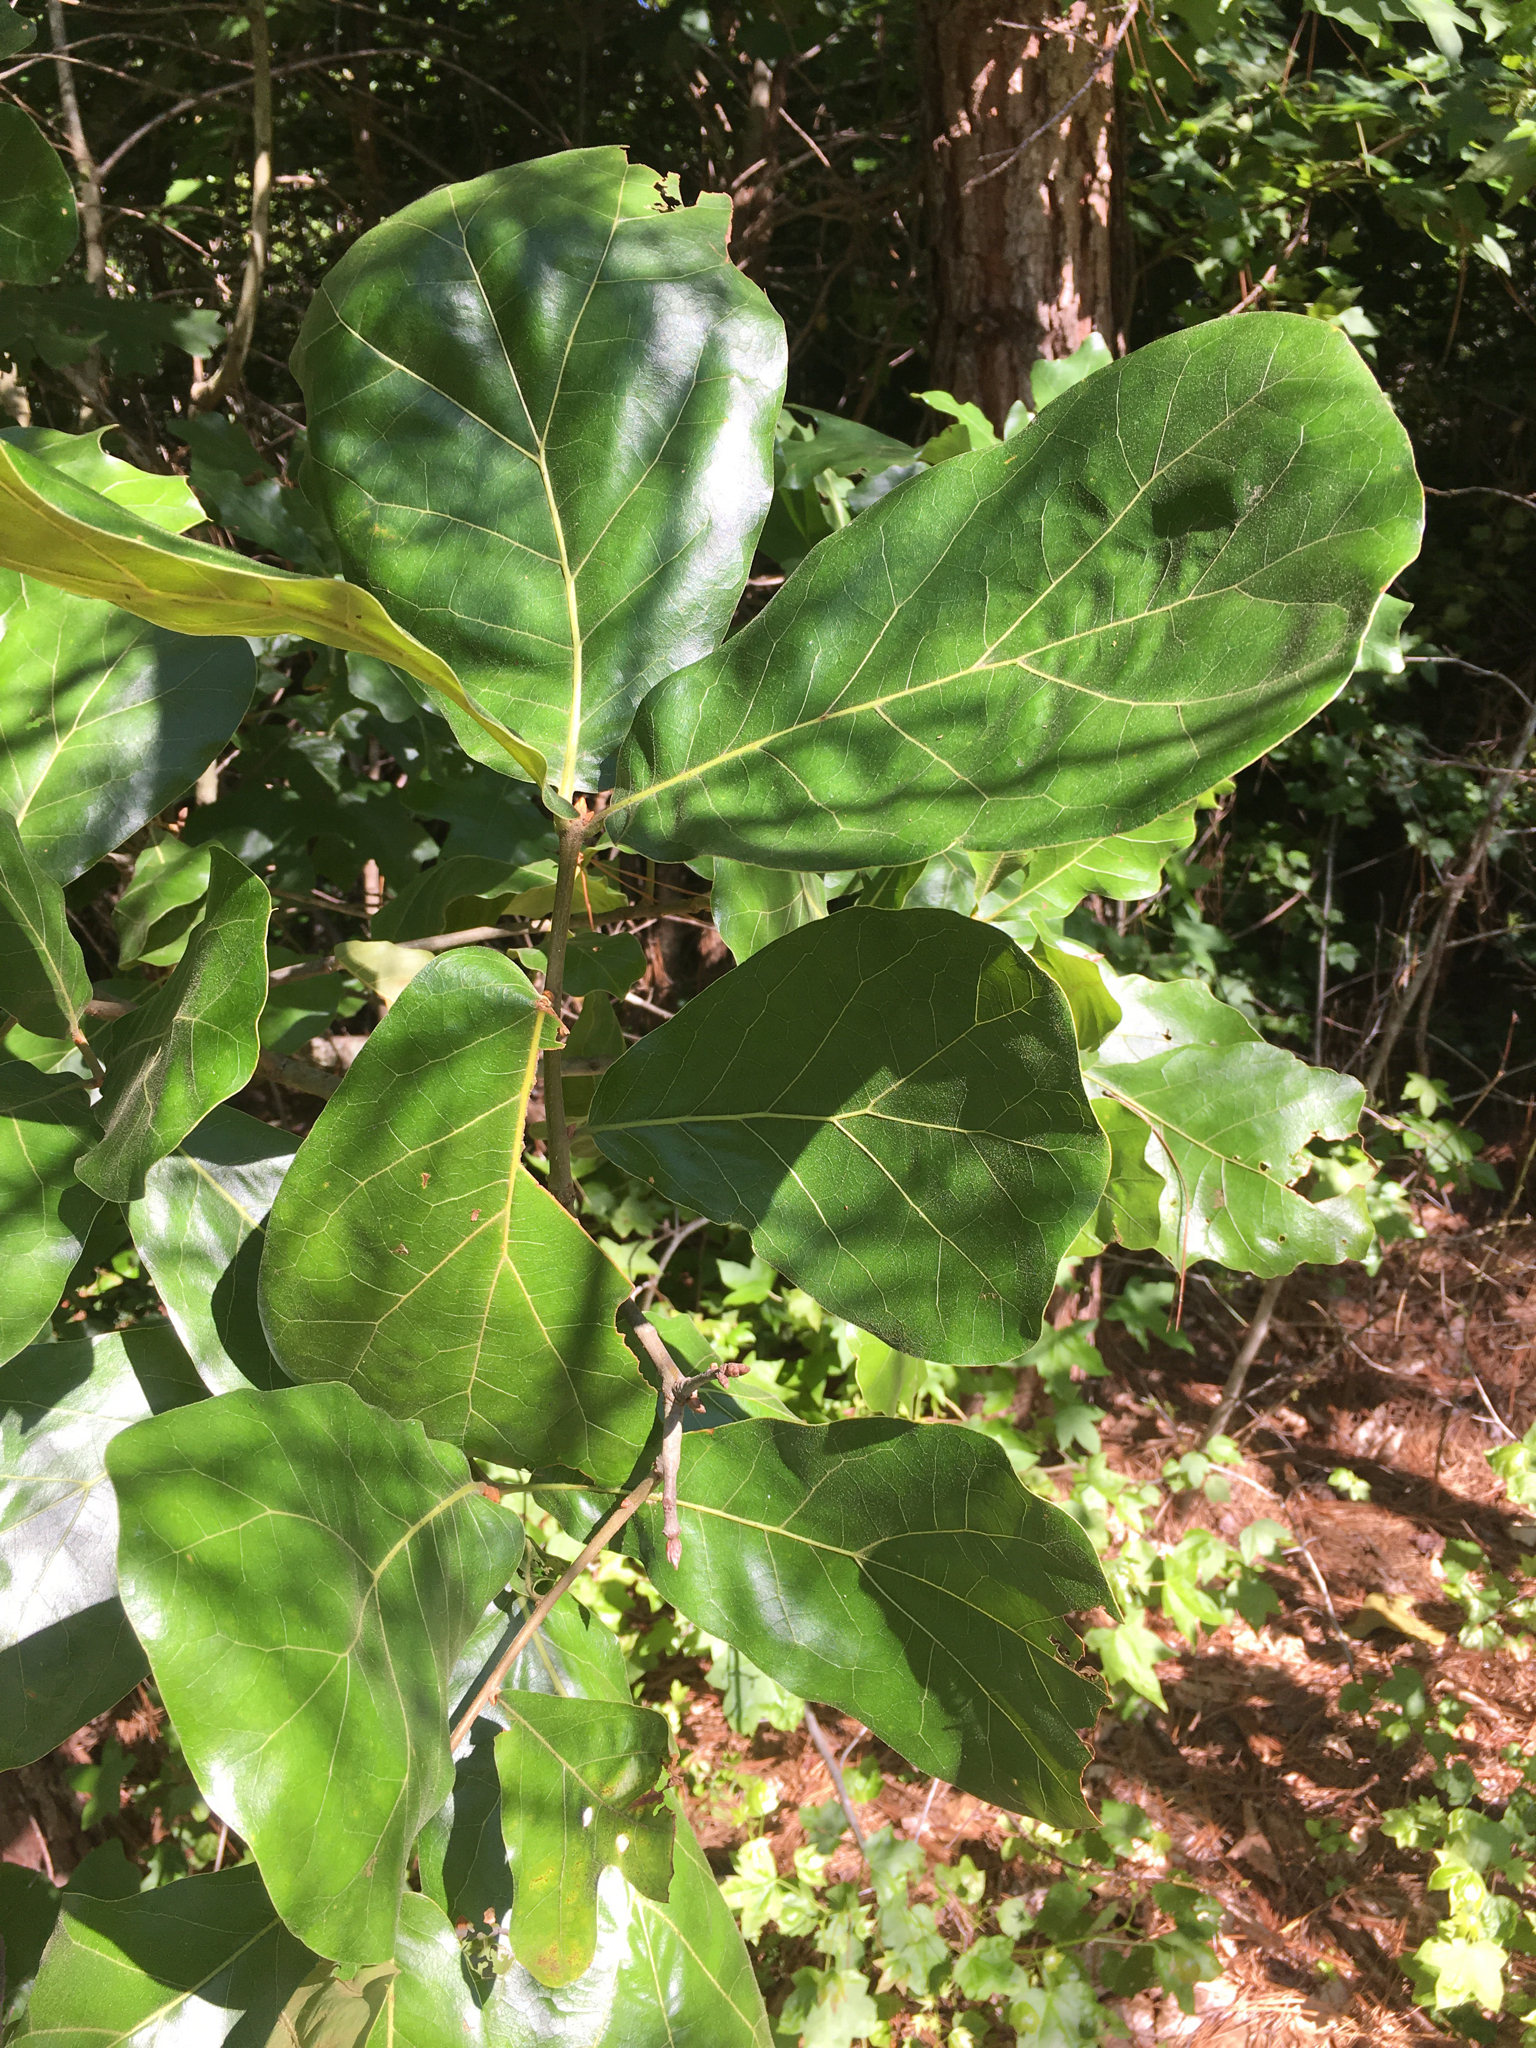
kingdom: Plantae
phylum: Tracheophyta
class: Magnoliopsida
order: Fagales
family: Fagaceae
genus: Quercus
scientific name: Quercus marilandica
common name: Blackjack oak
